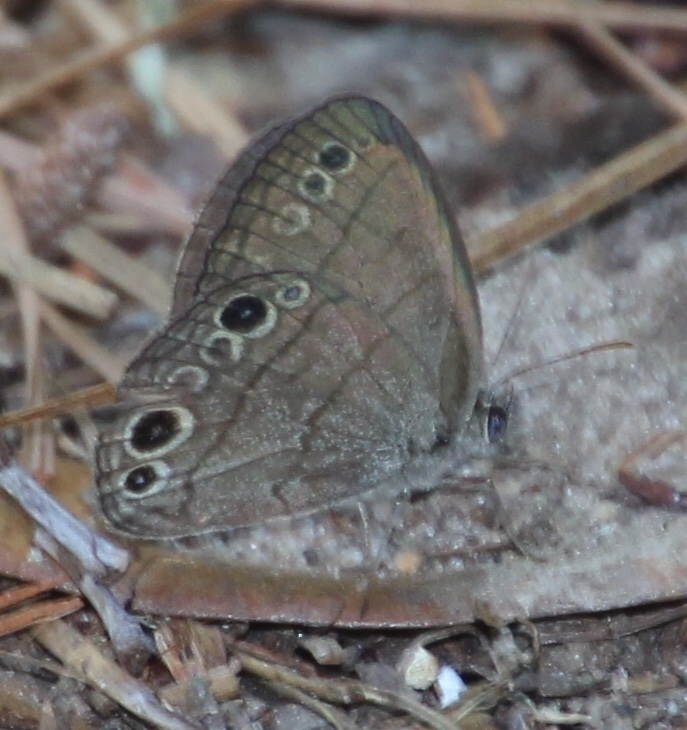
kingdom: Animalia
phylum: Arthropoda
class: Insecta
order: Lepidoptera
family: Nymphalidae
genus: Hermeuptychia
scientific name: Hermeuptychia hermes
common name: Hermes satyr
